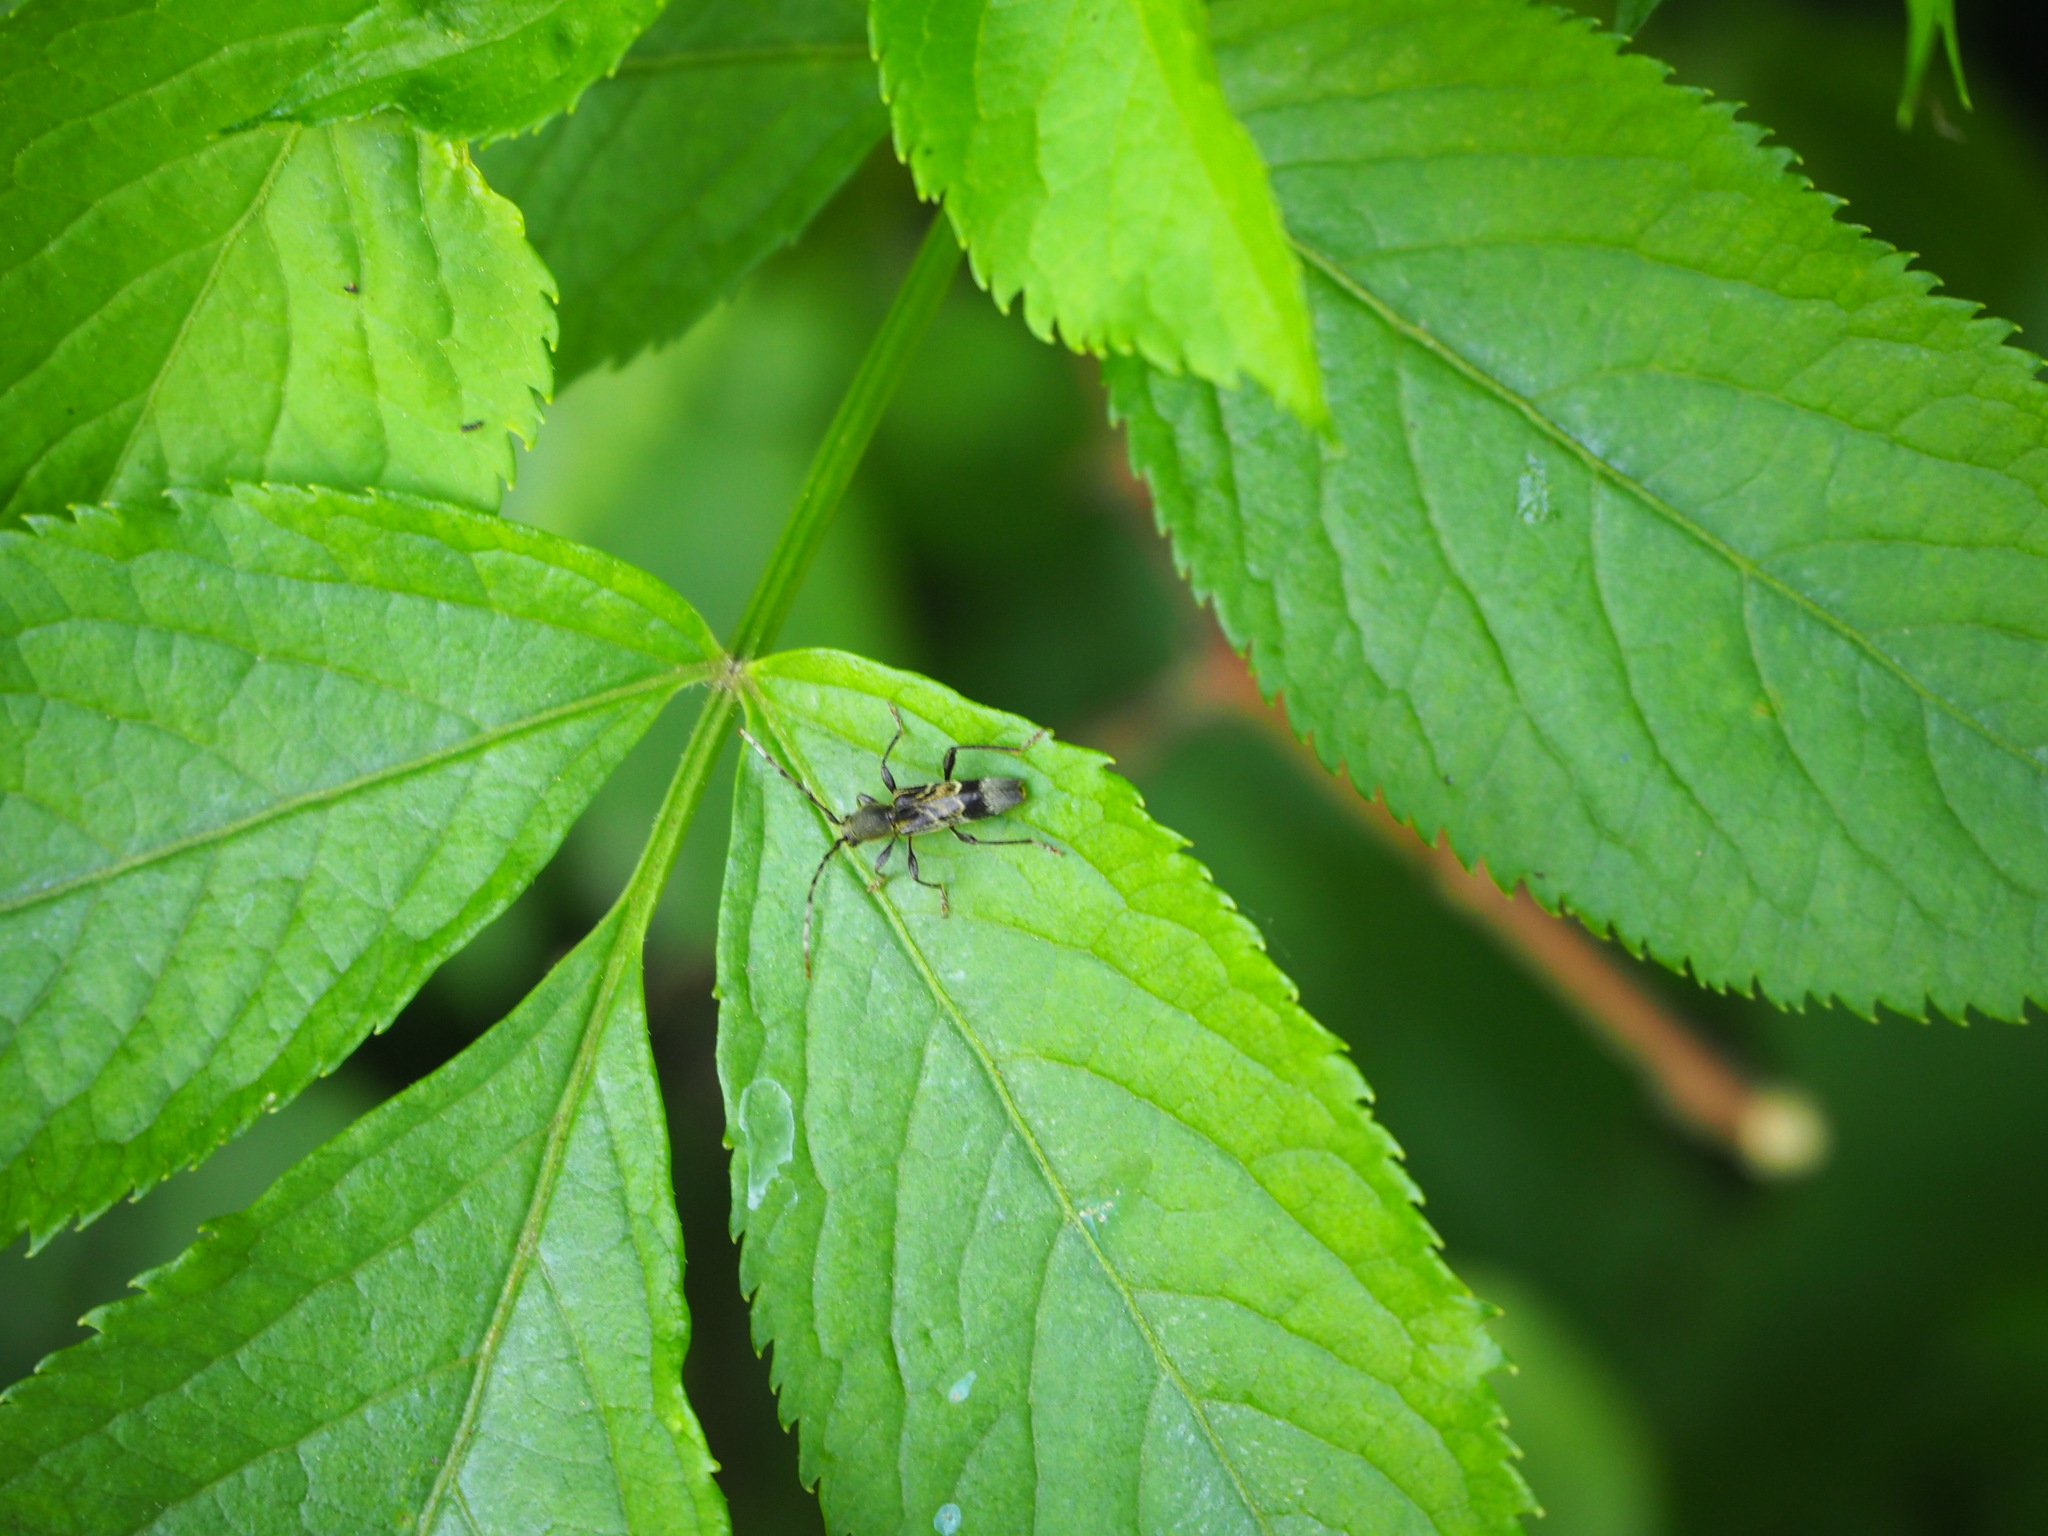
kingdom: Animalia
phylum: Arthropoda
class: Insecta
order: Coleoptera
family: Cerambycidae
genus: Anaglyptus
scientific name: Anaglyptus gibbosus
